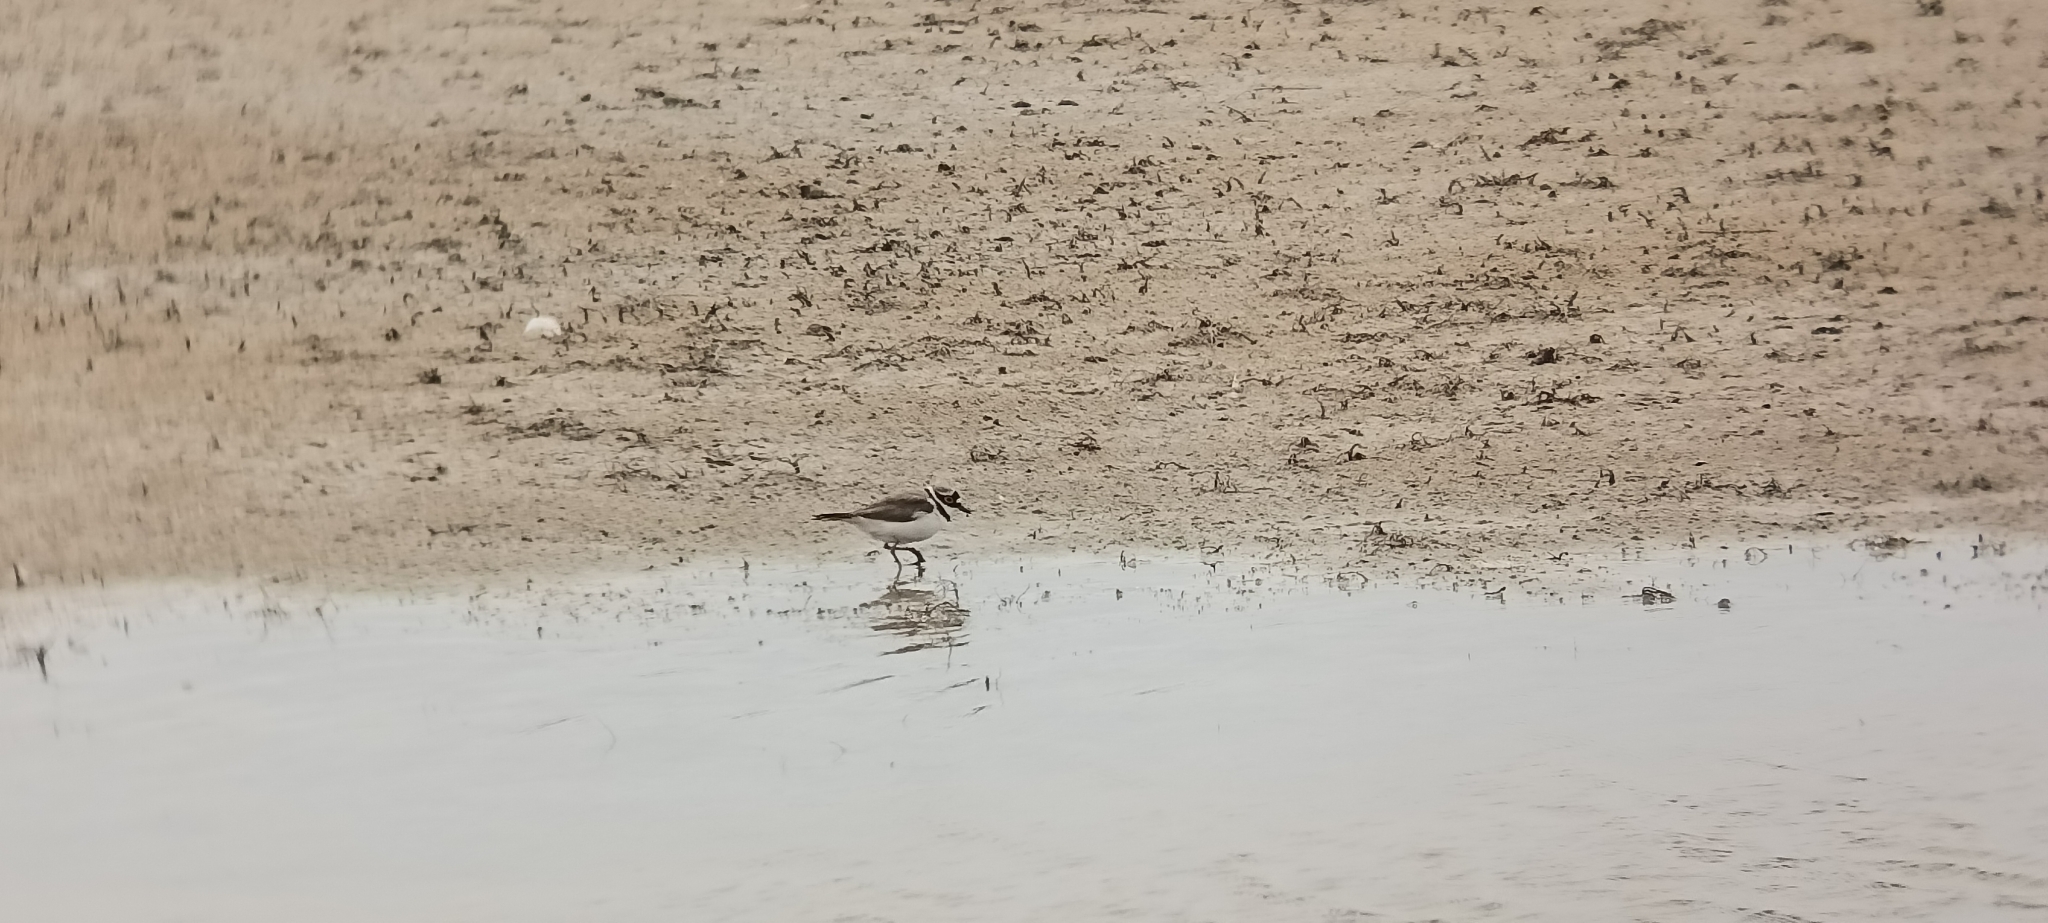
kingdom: Animalia
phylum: Chordata
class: Aves
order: Charadriiformes
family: Charadriidae
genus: Charadrius
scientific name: Charadrius dubius
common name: Little ringed plover
